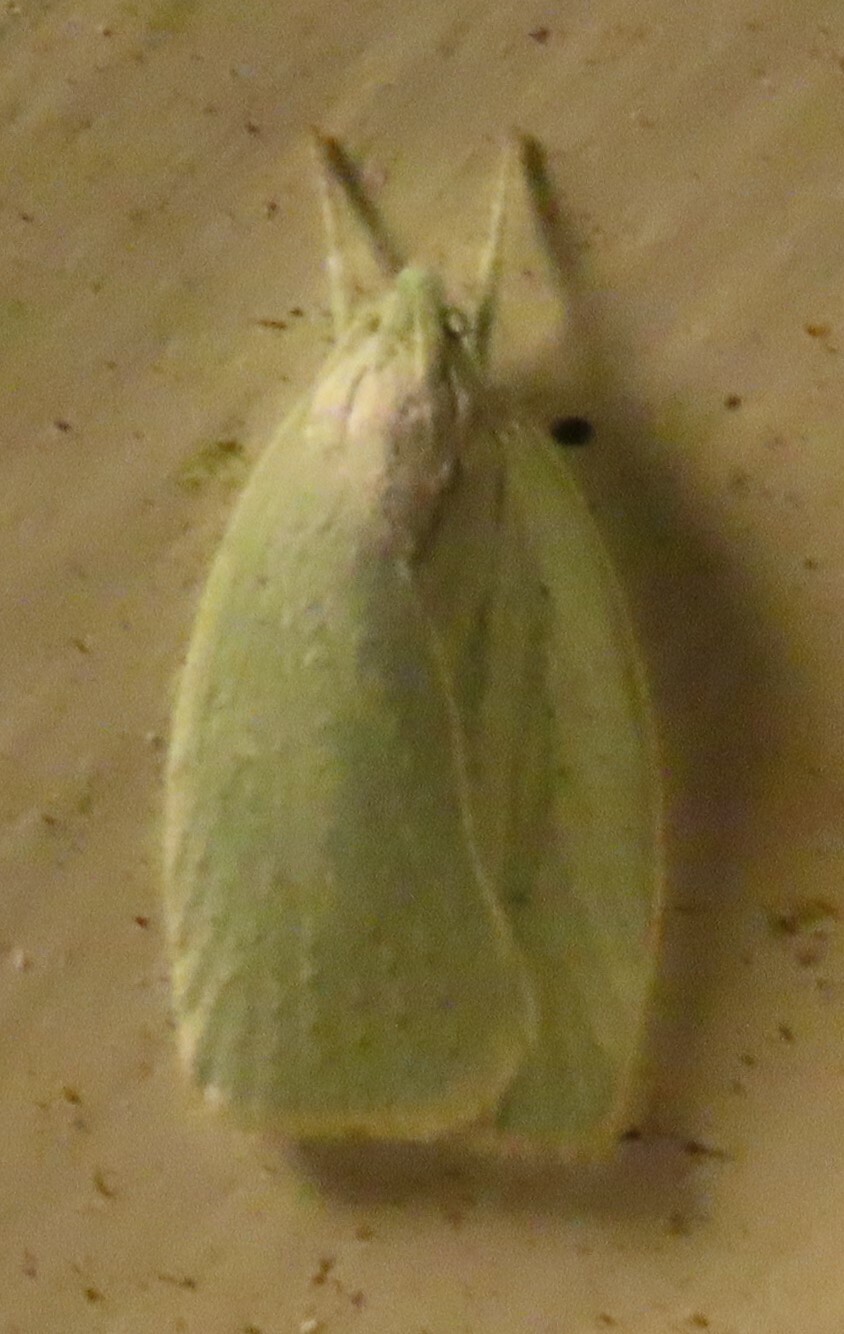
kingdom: Animalia
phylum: Arthropoda
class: Insecta
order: Lepidoptera
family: Oecophoridae
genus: Nymphostola
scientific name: Nymphostola galactina
